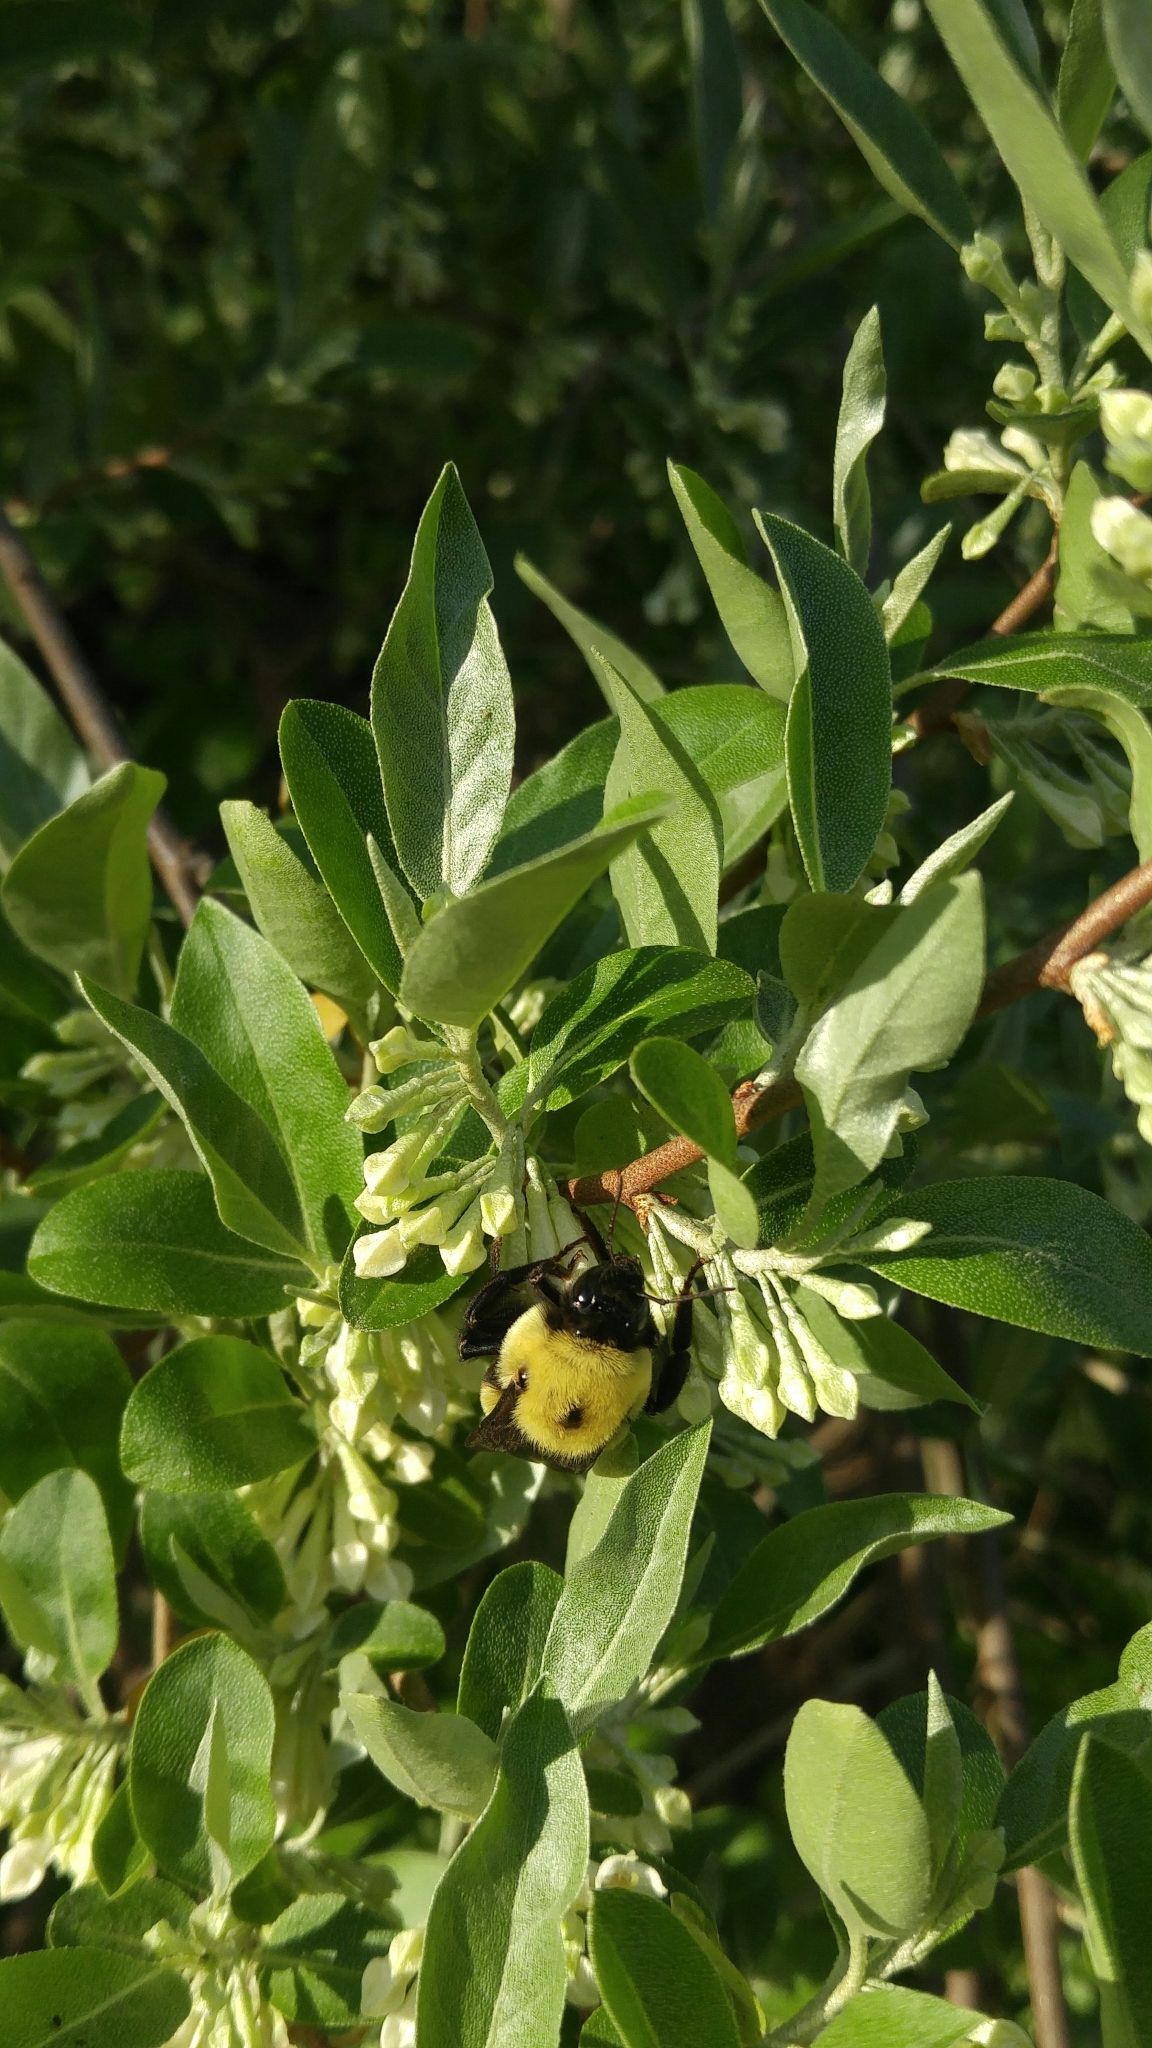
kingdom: Animalia
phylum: Arthropoda
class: Insecta
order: Hymenoptera
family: Apidae
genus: Bombus
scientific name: Bombus griseocollis
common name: Brown-belted bumble bee
